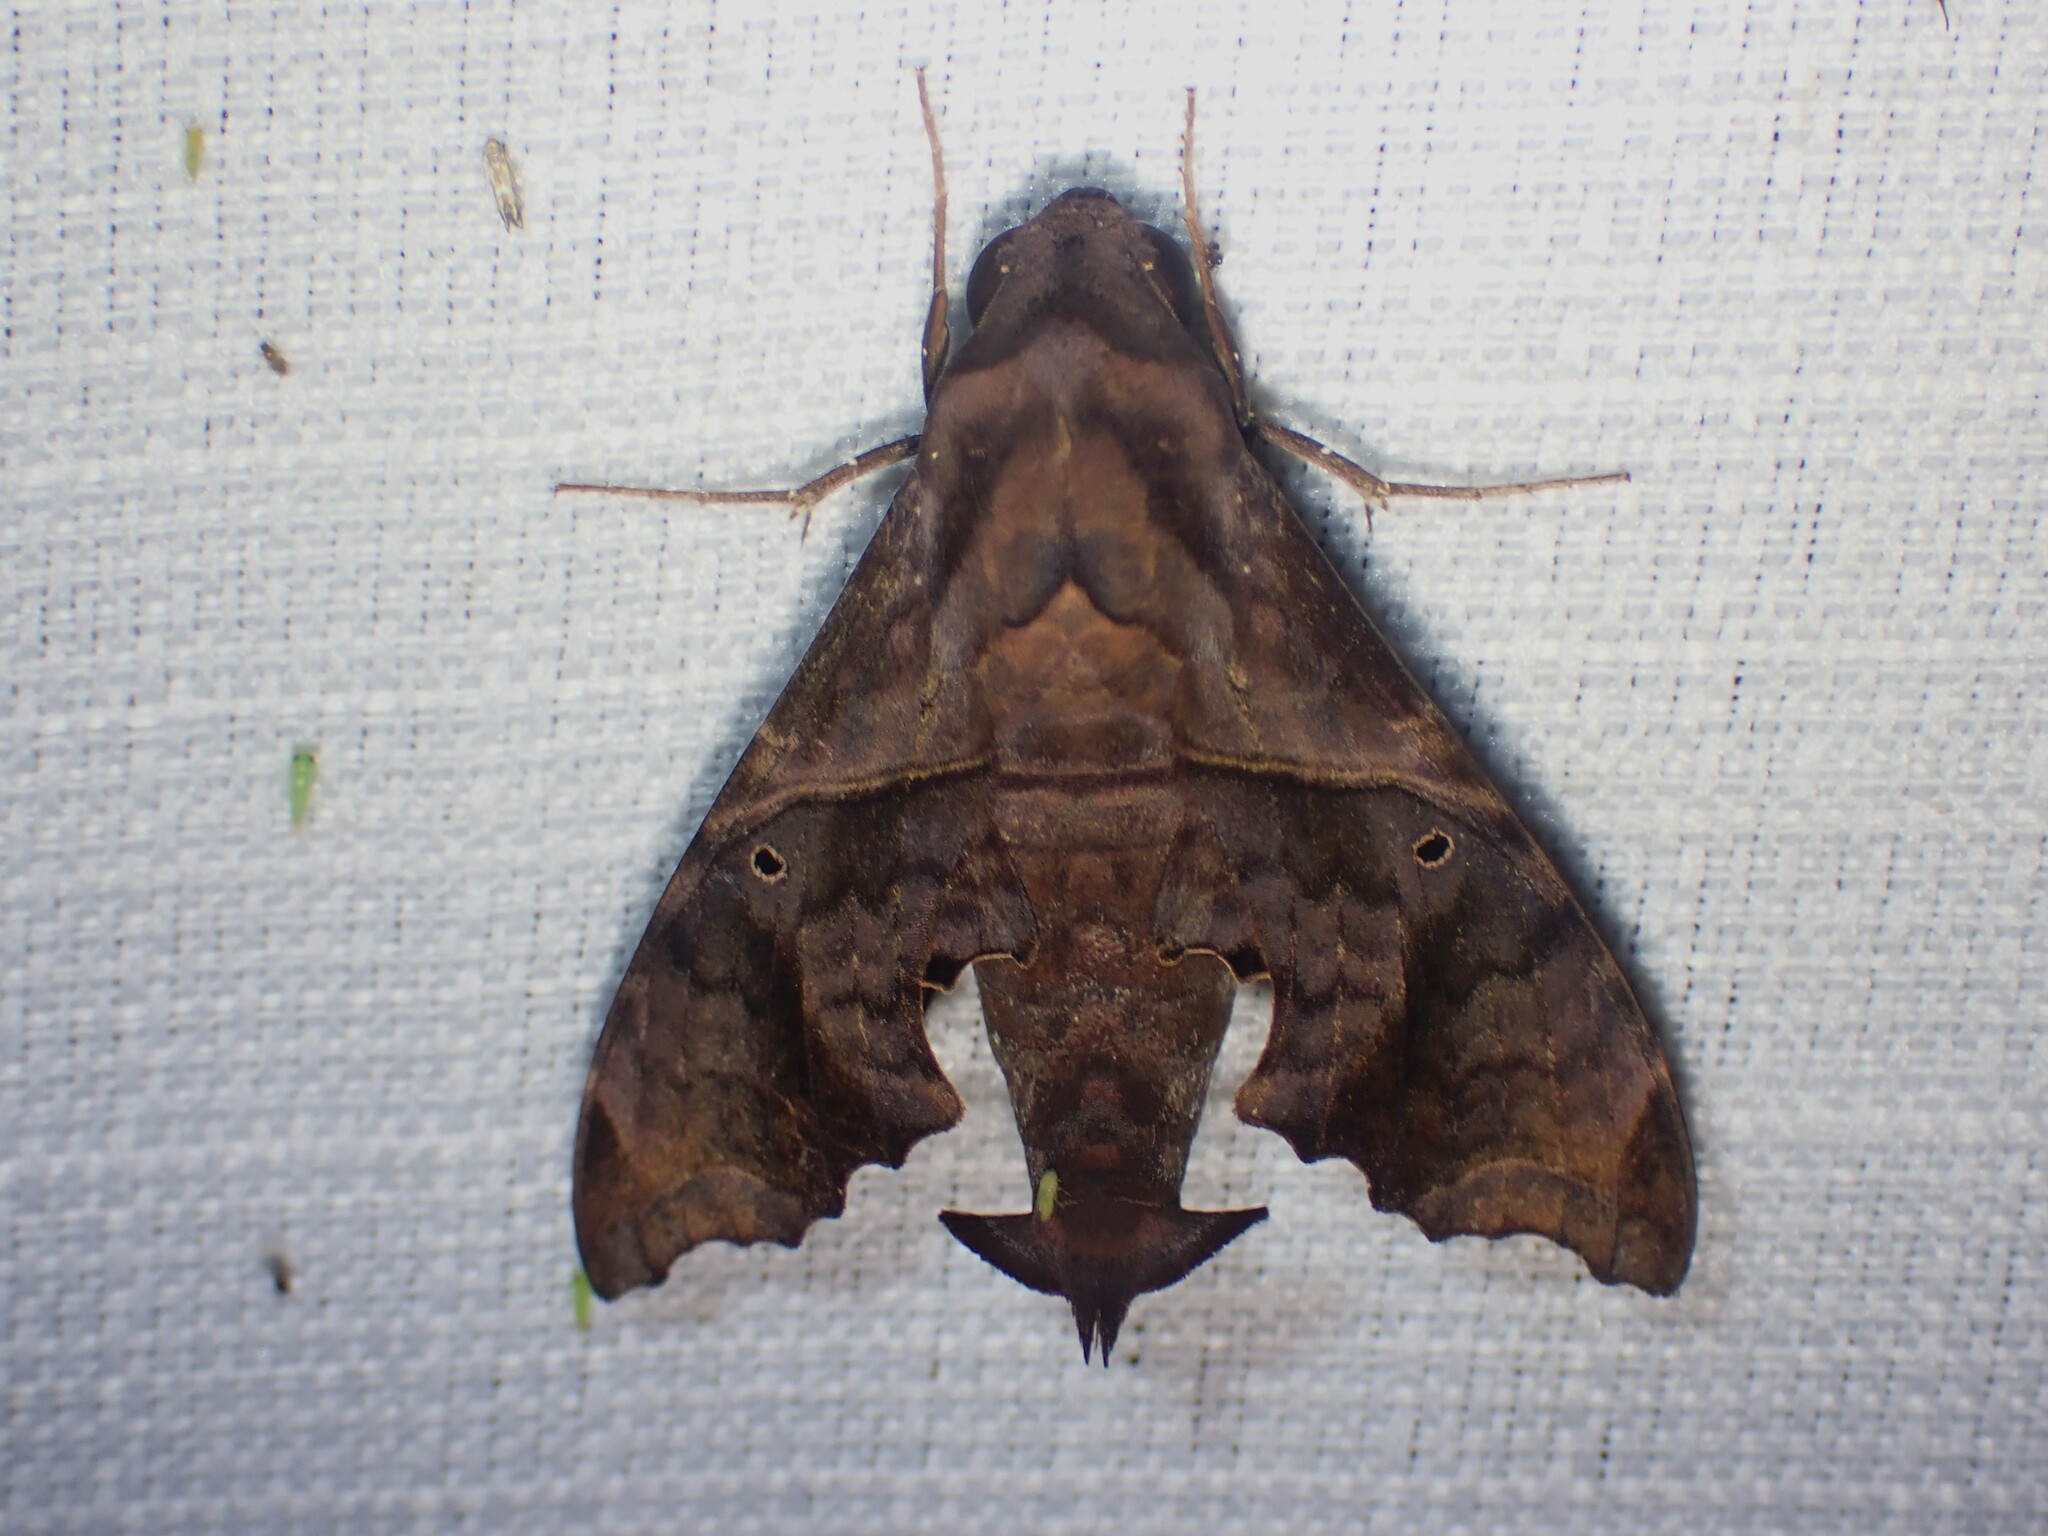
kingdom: Animalia
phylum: Arthropoda
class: Insecta
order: Lepidoptera
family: Sphingidae
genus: Enyo
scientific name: Enyo lugubris
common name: Mournful sphinx
